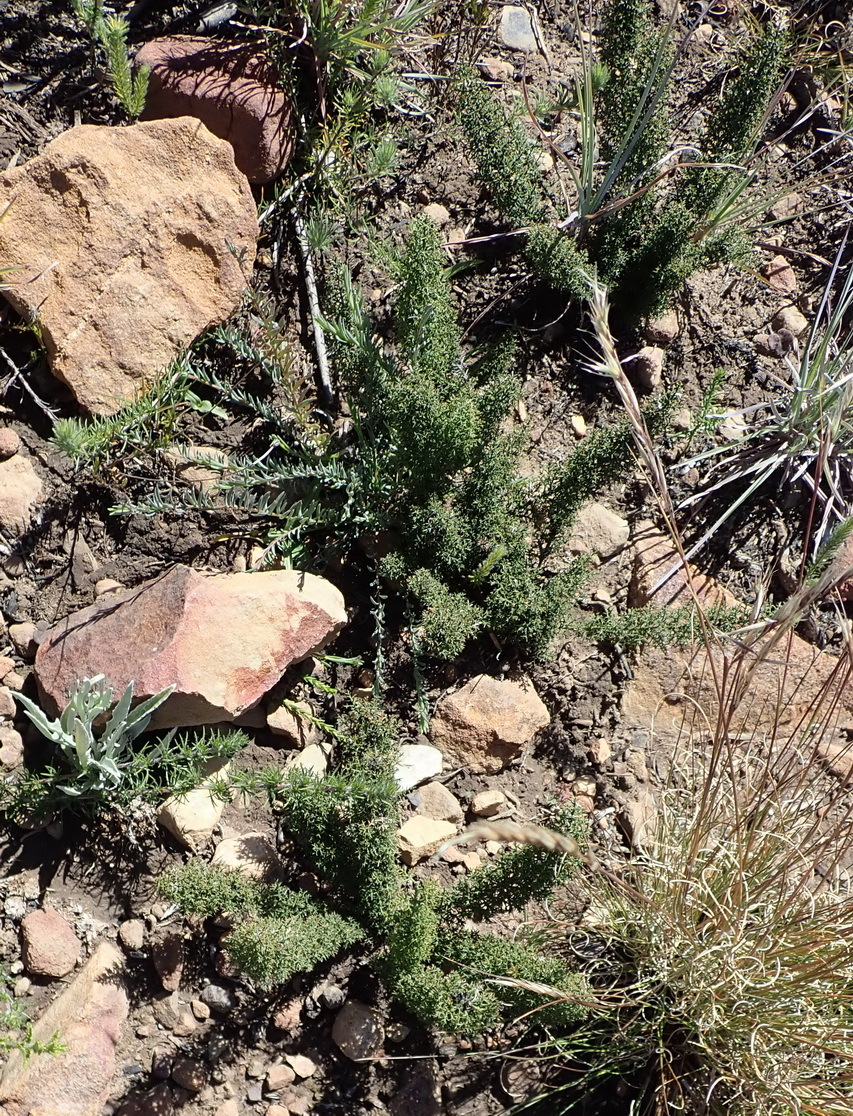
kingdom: Plantae
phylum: Tracheophyta
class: Liliopsida
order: Asparagales
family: Asparagaceae
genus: Asparagus
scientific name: Asparagus oliveri
